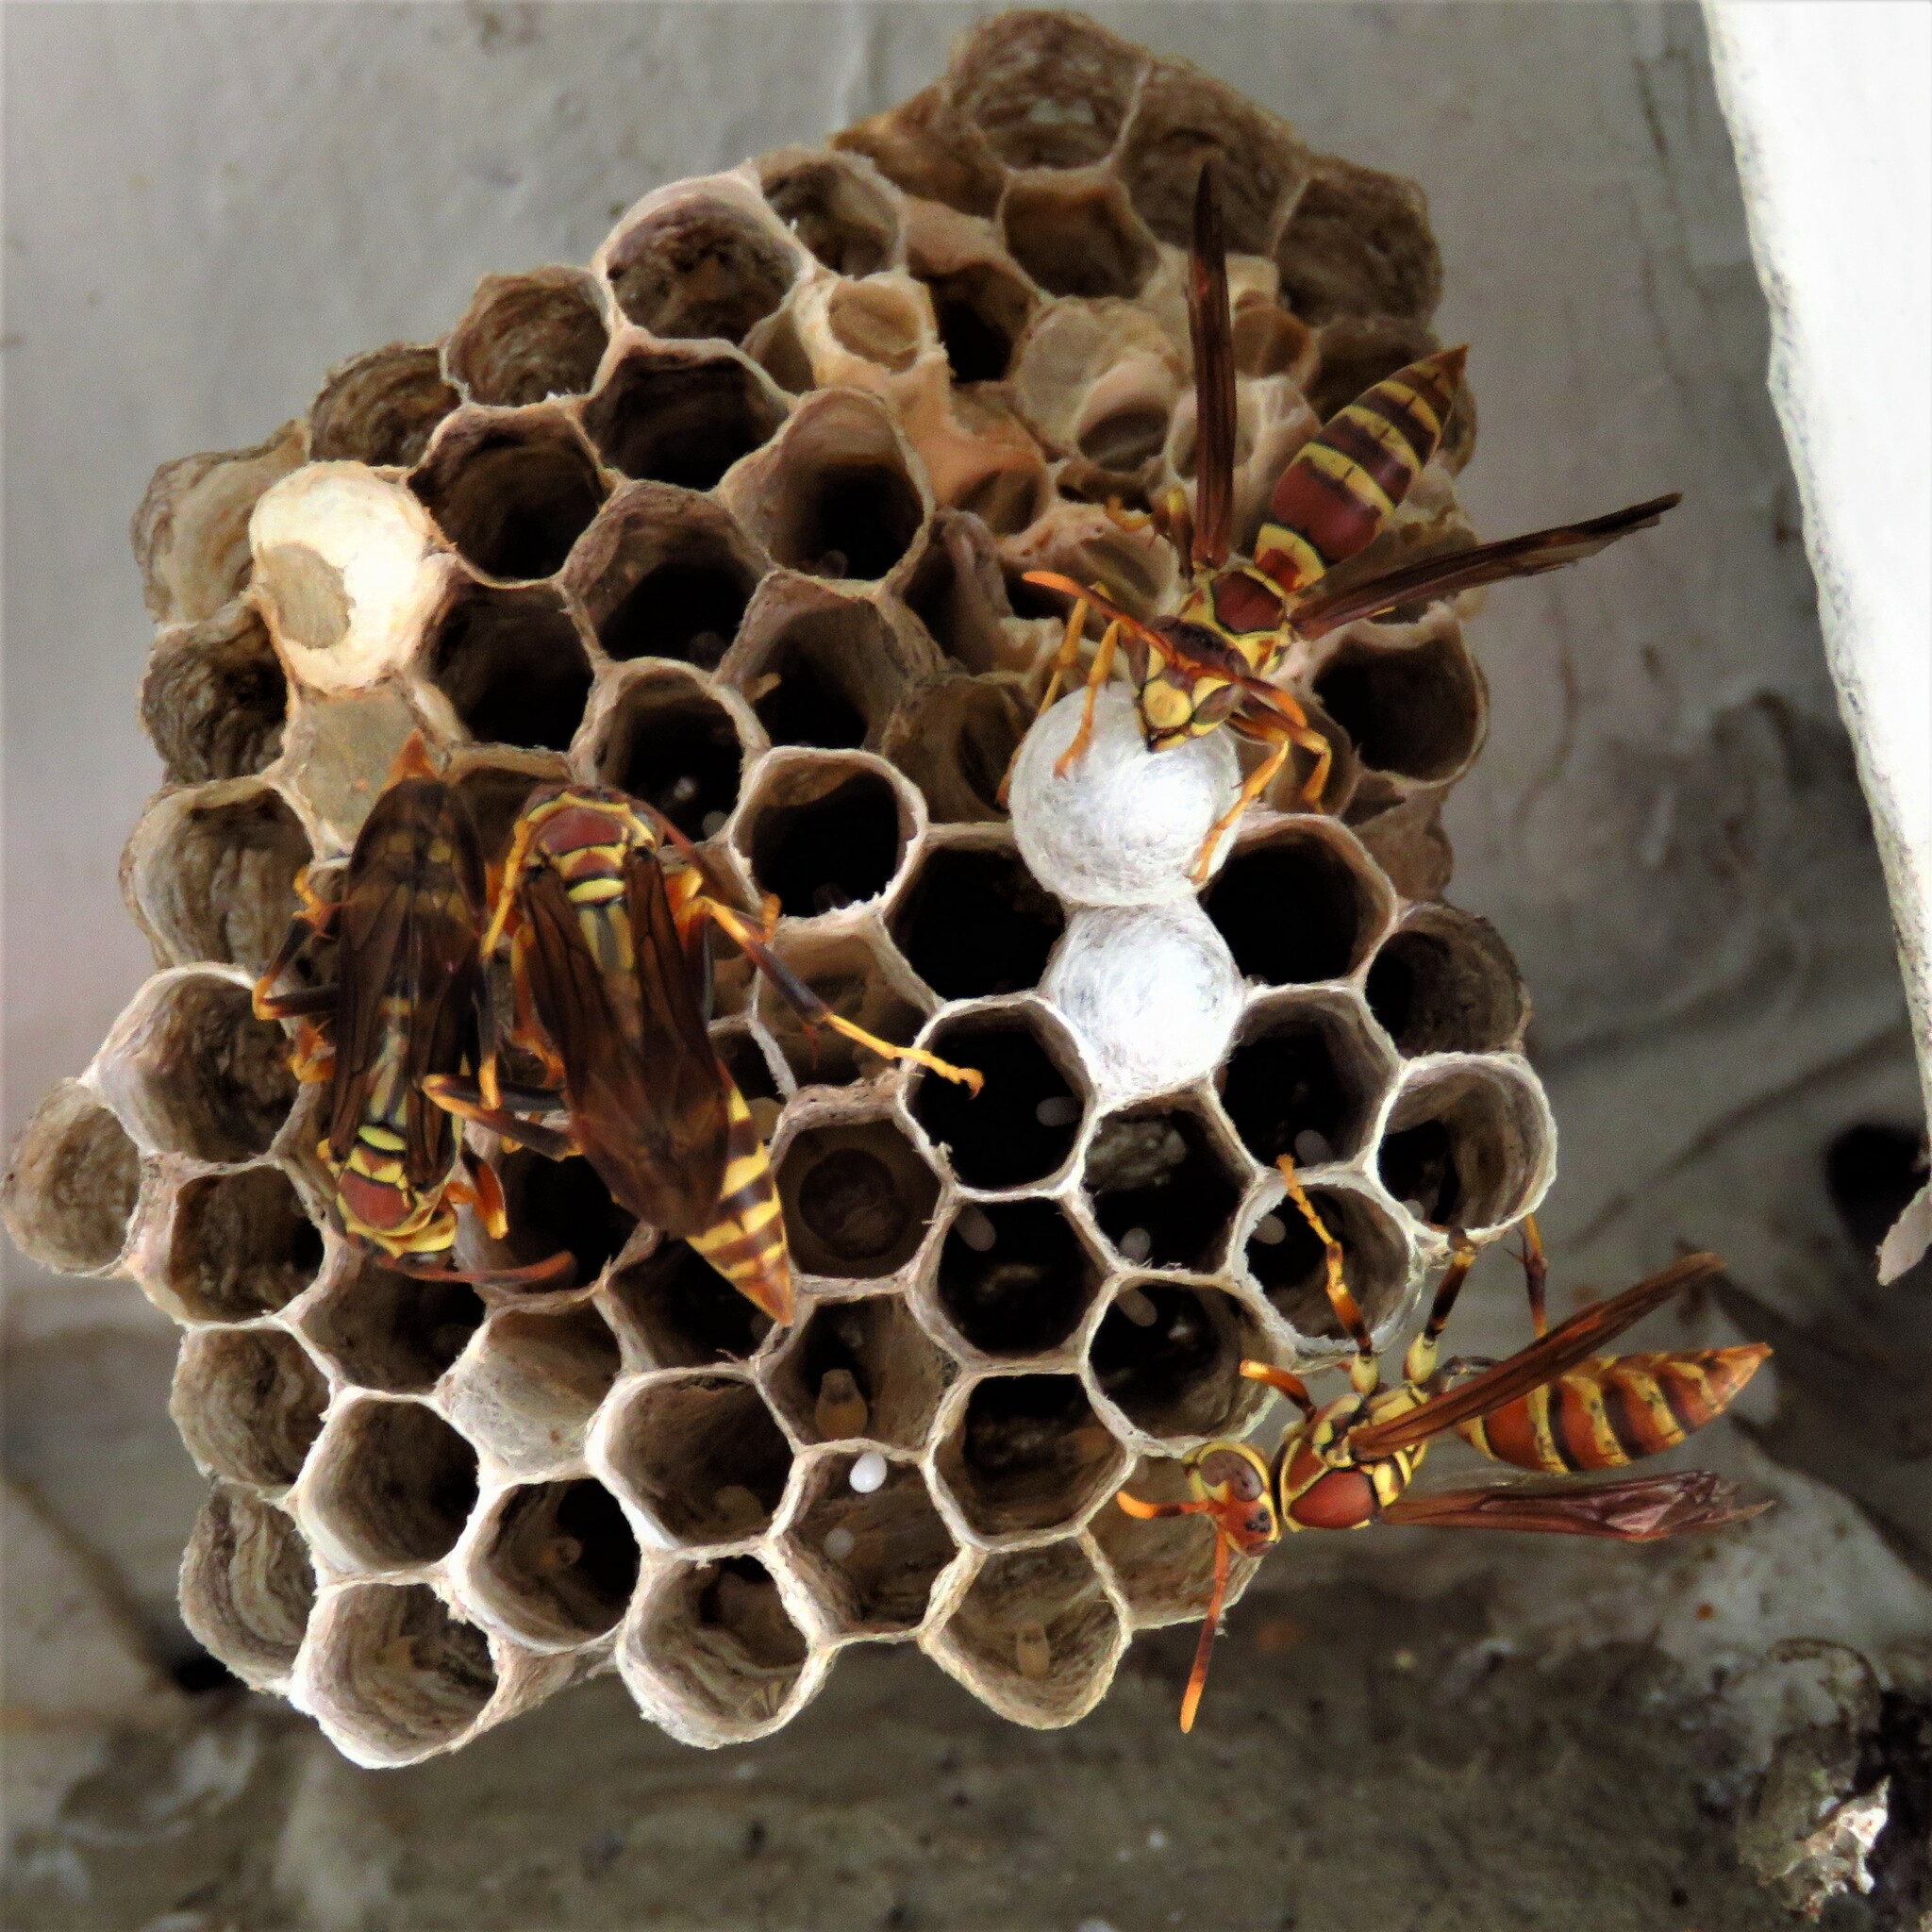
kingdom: Animalia
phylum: Arthropoda
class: Insecta
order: Hymenoptera
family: Eumenidae
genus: Polistes
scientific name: Polistes exclamans
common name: Paper wasp
